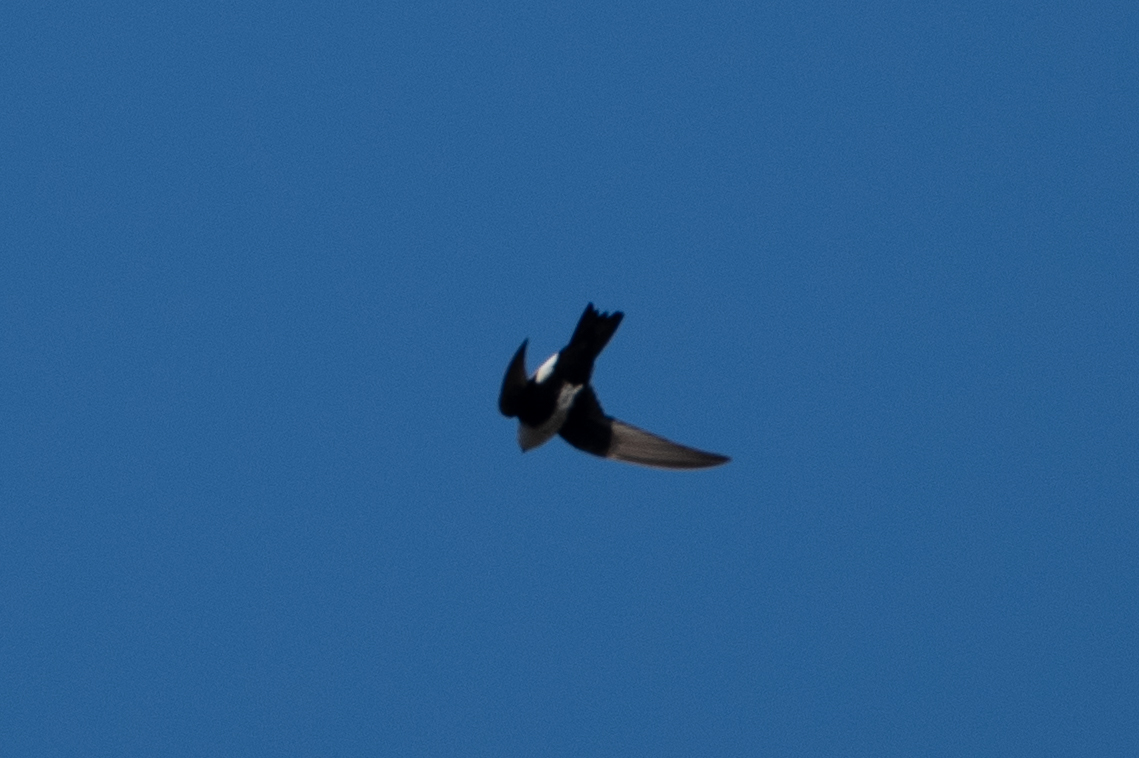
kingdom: Animalia
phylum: Chordata
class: Aves
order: Apodiformes
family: Apodidae
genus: Aeronautes
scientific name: Aeronautes saxatalis
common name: White-throated swift
